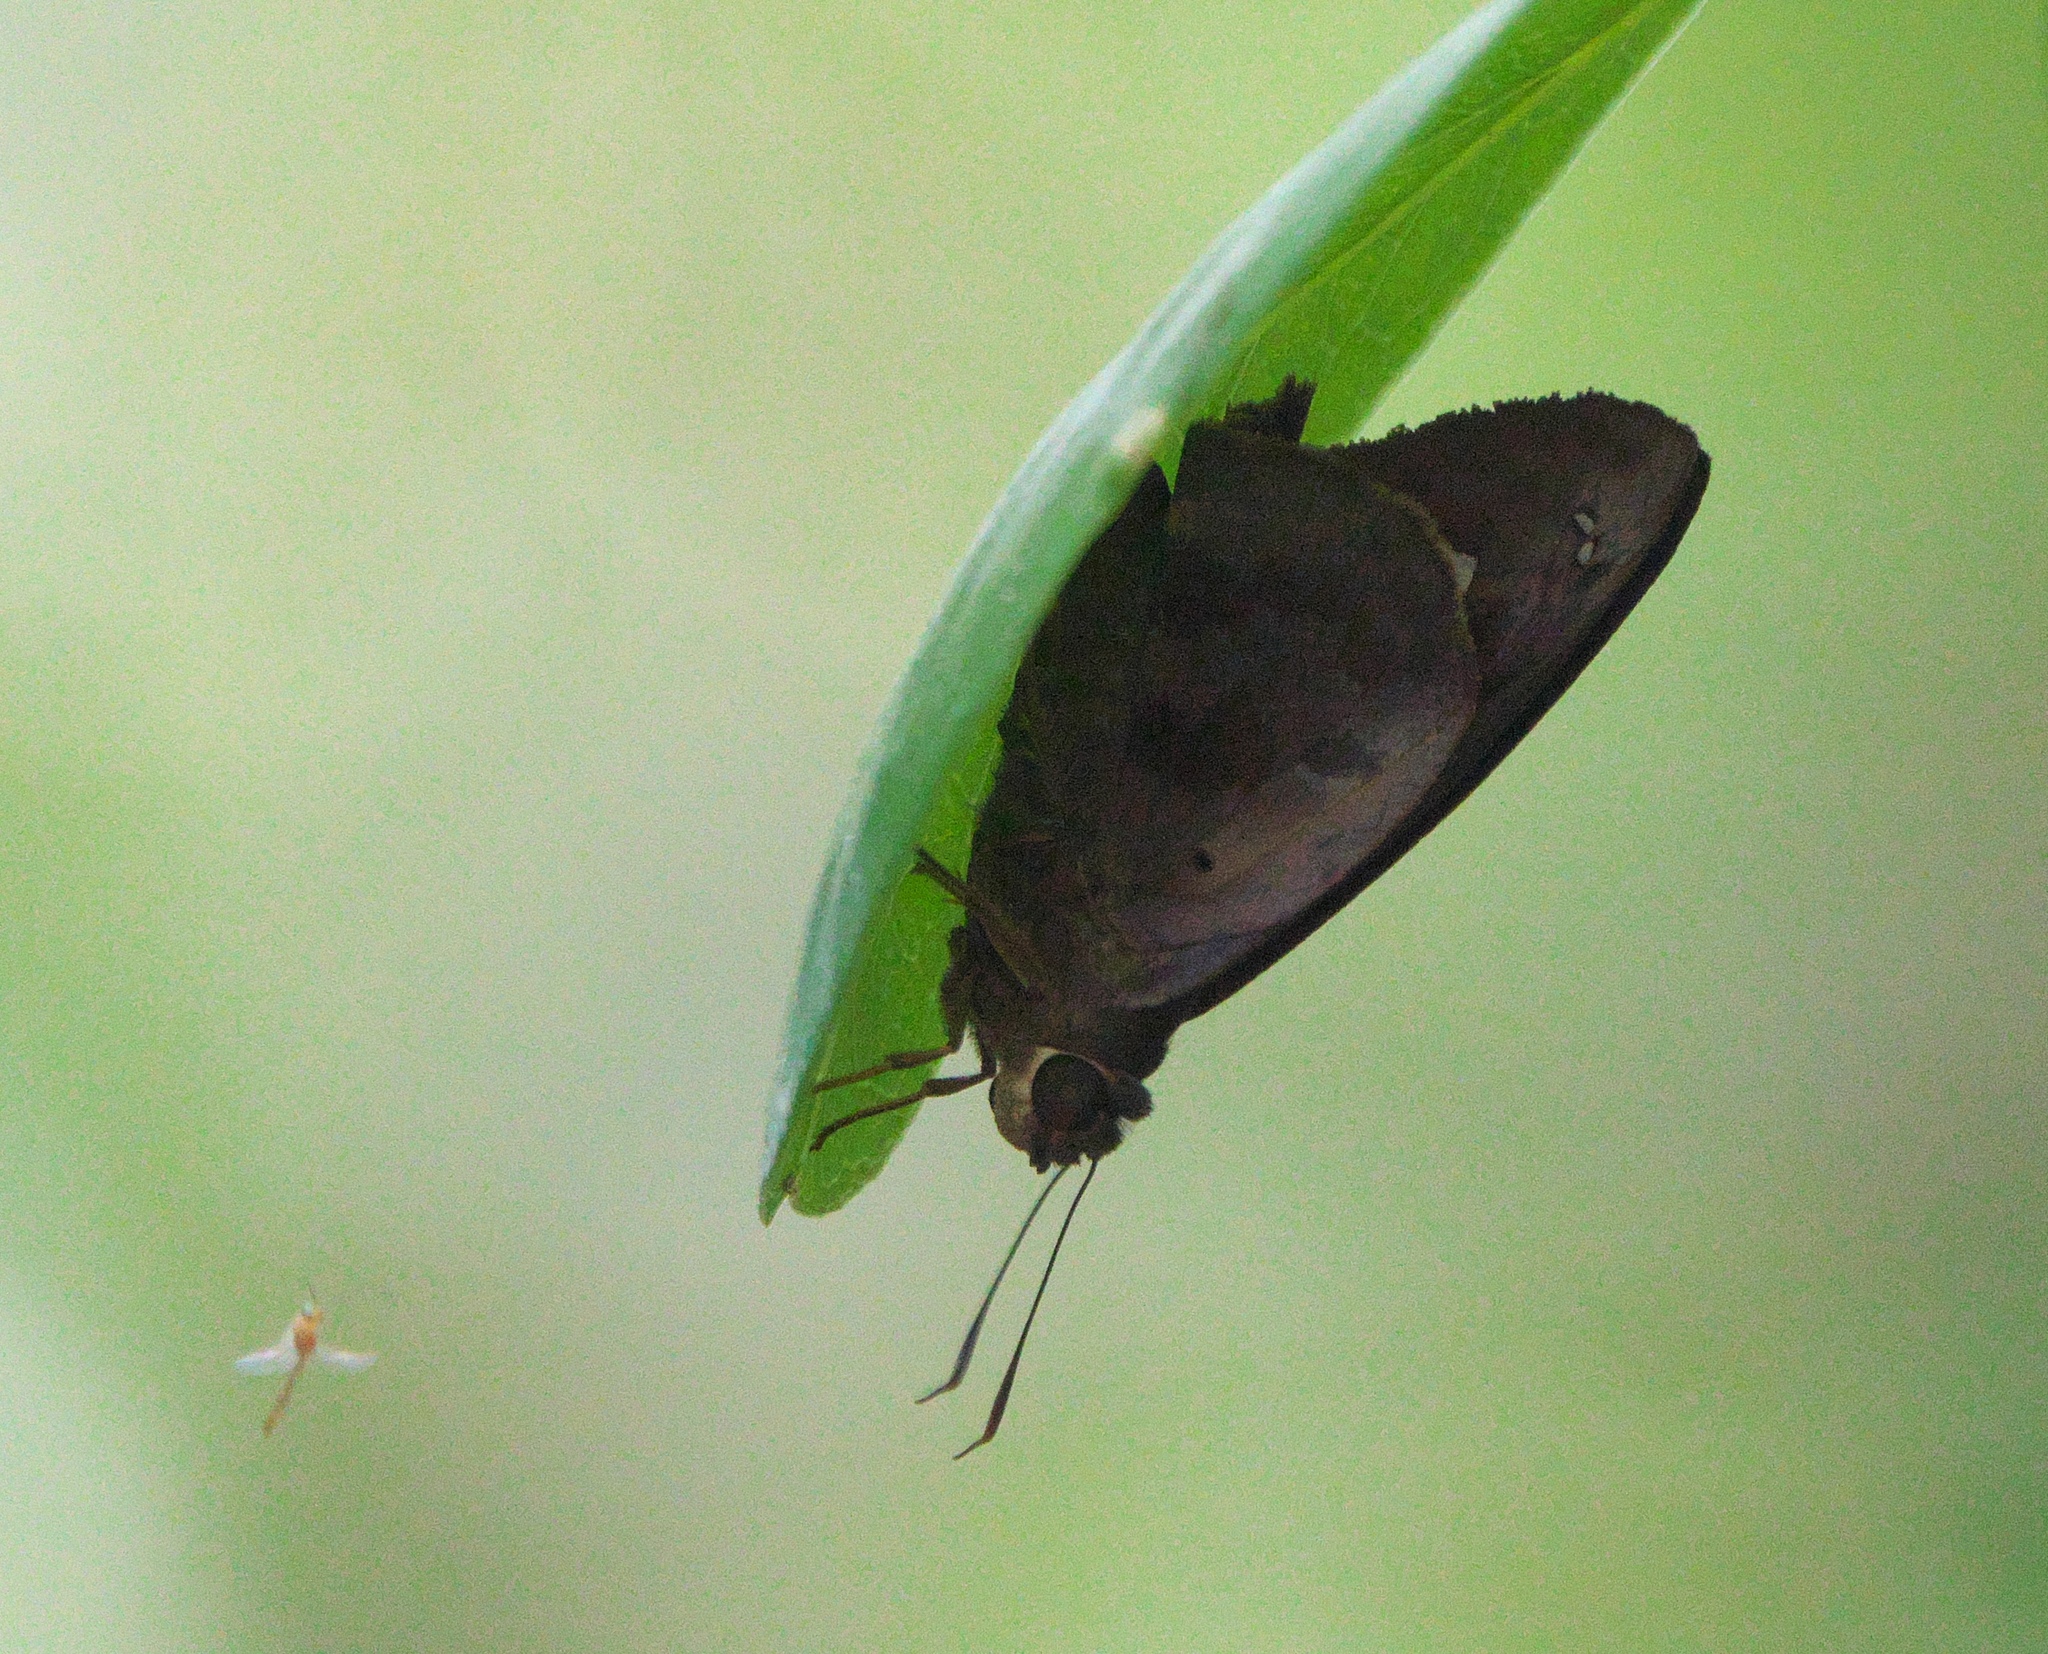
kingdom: Animalia
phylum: Arthropoda
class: Insecta
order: Lepidoptera
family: Hesperiidae
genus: Polygonus
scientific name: Polygonus leo
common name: Hammoch skipper
